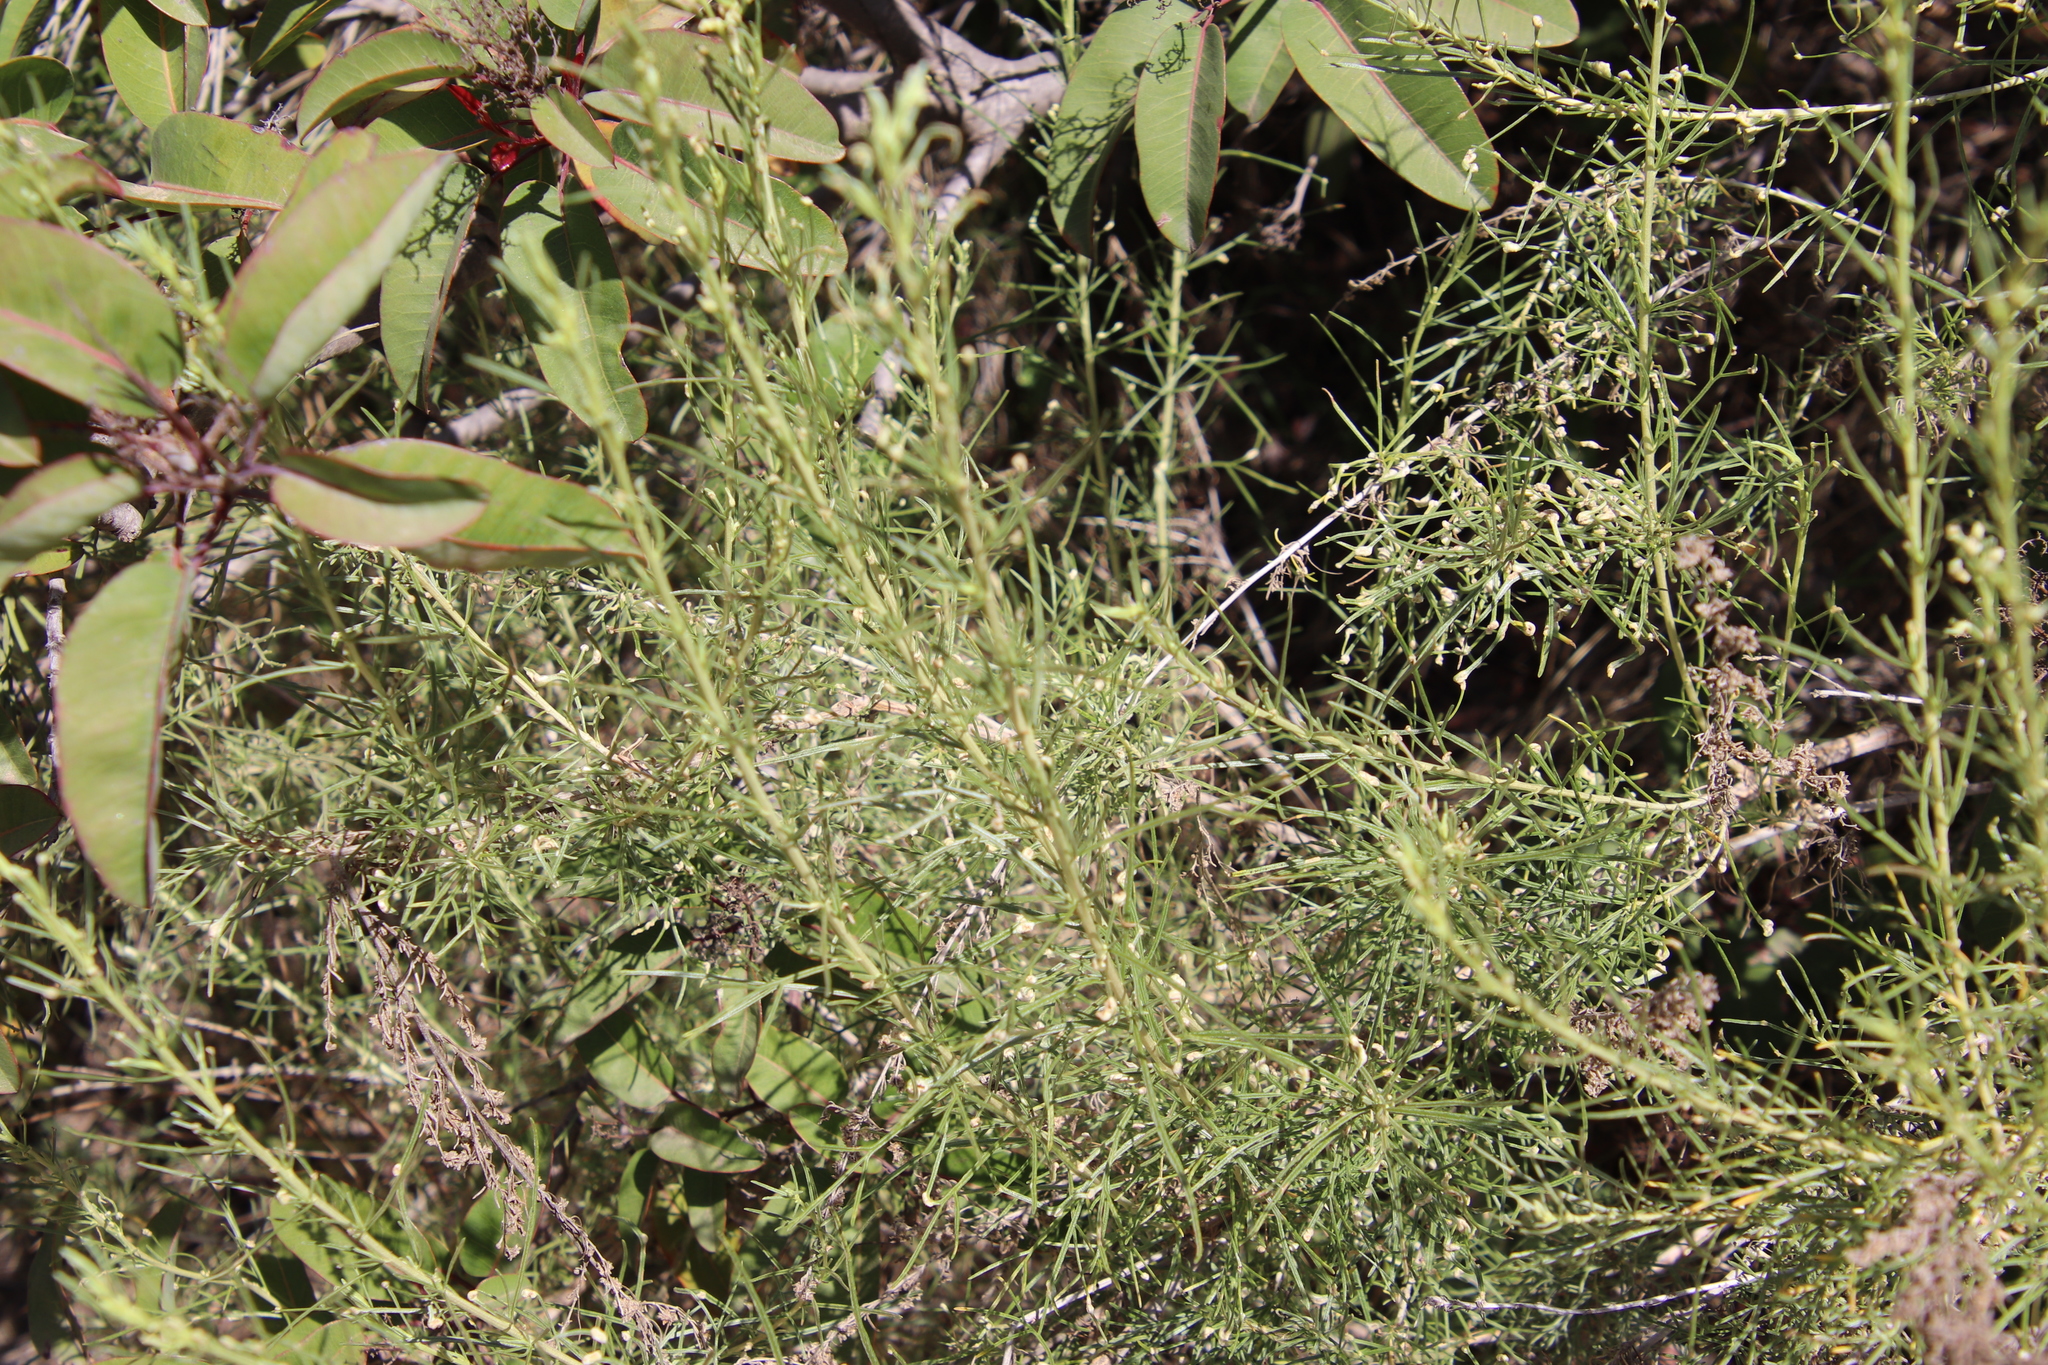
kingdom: Animalia
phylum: Arthropoda
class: Arachnida
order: Trombidiformes
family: Eriophyidae
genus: Aceria
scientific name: Aceria
